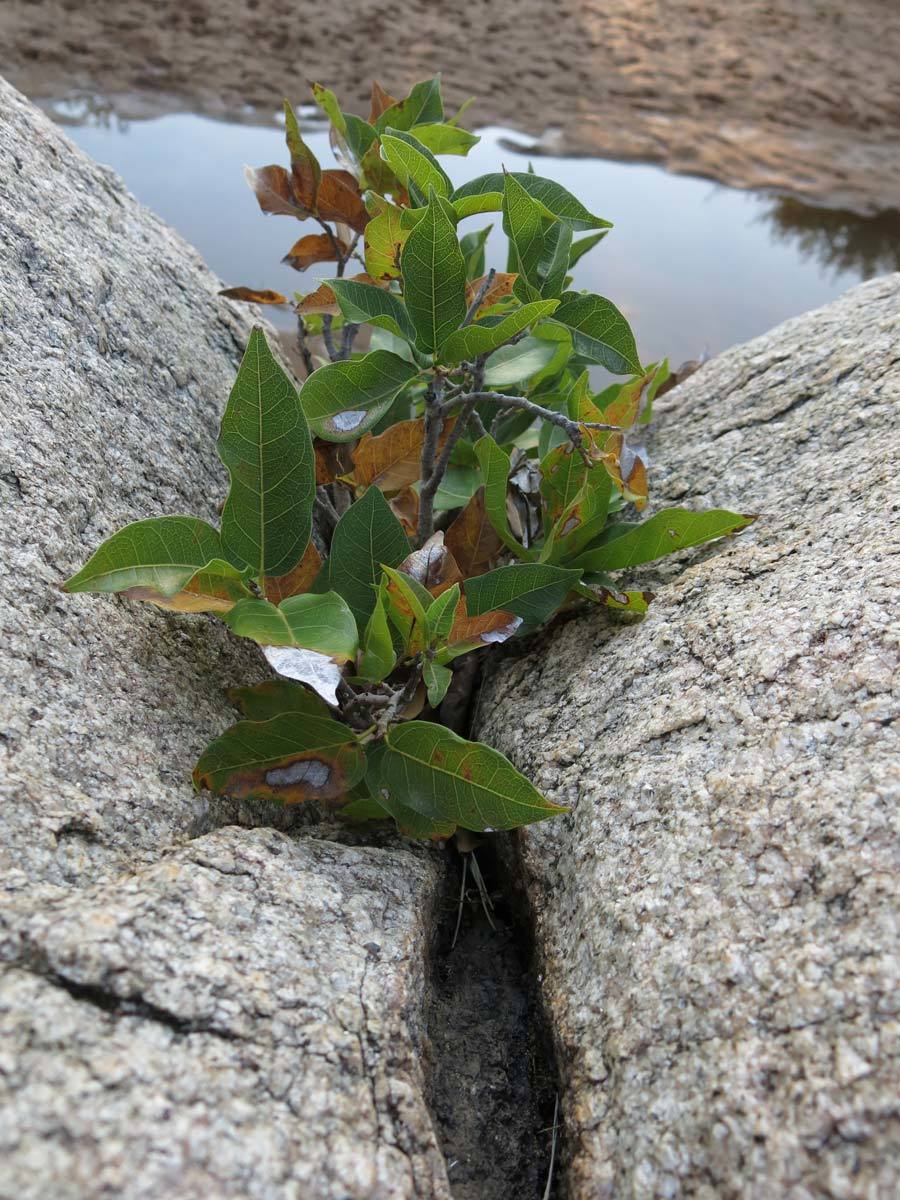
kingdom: Plantae
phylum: Tracheophyta
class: Magnoliopsida
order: Rosales
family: Moraceae
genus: Ficus
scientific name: Ficus ingens
